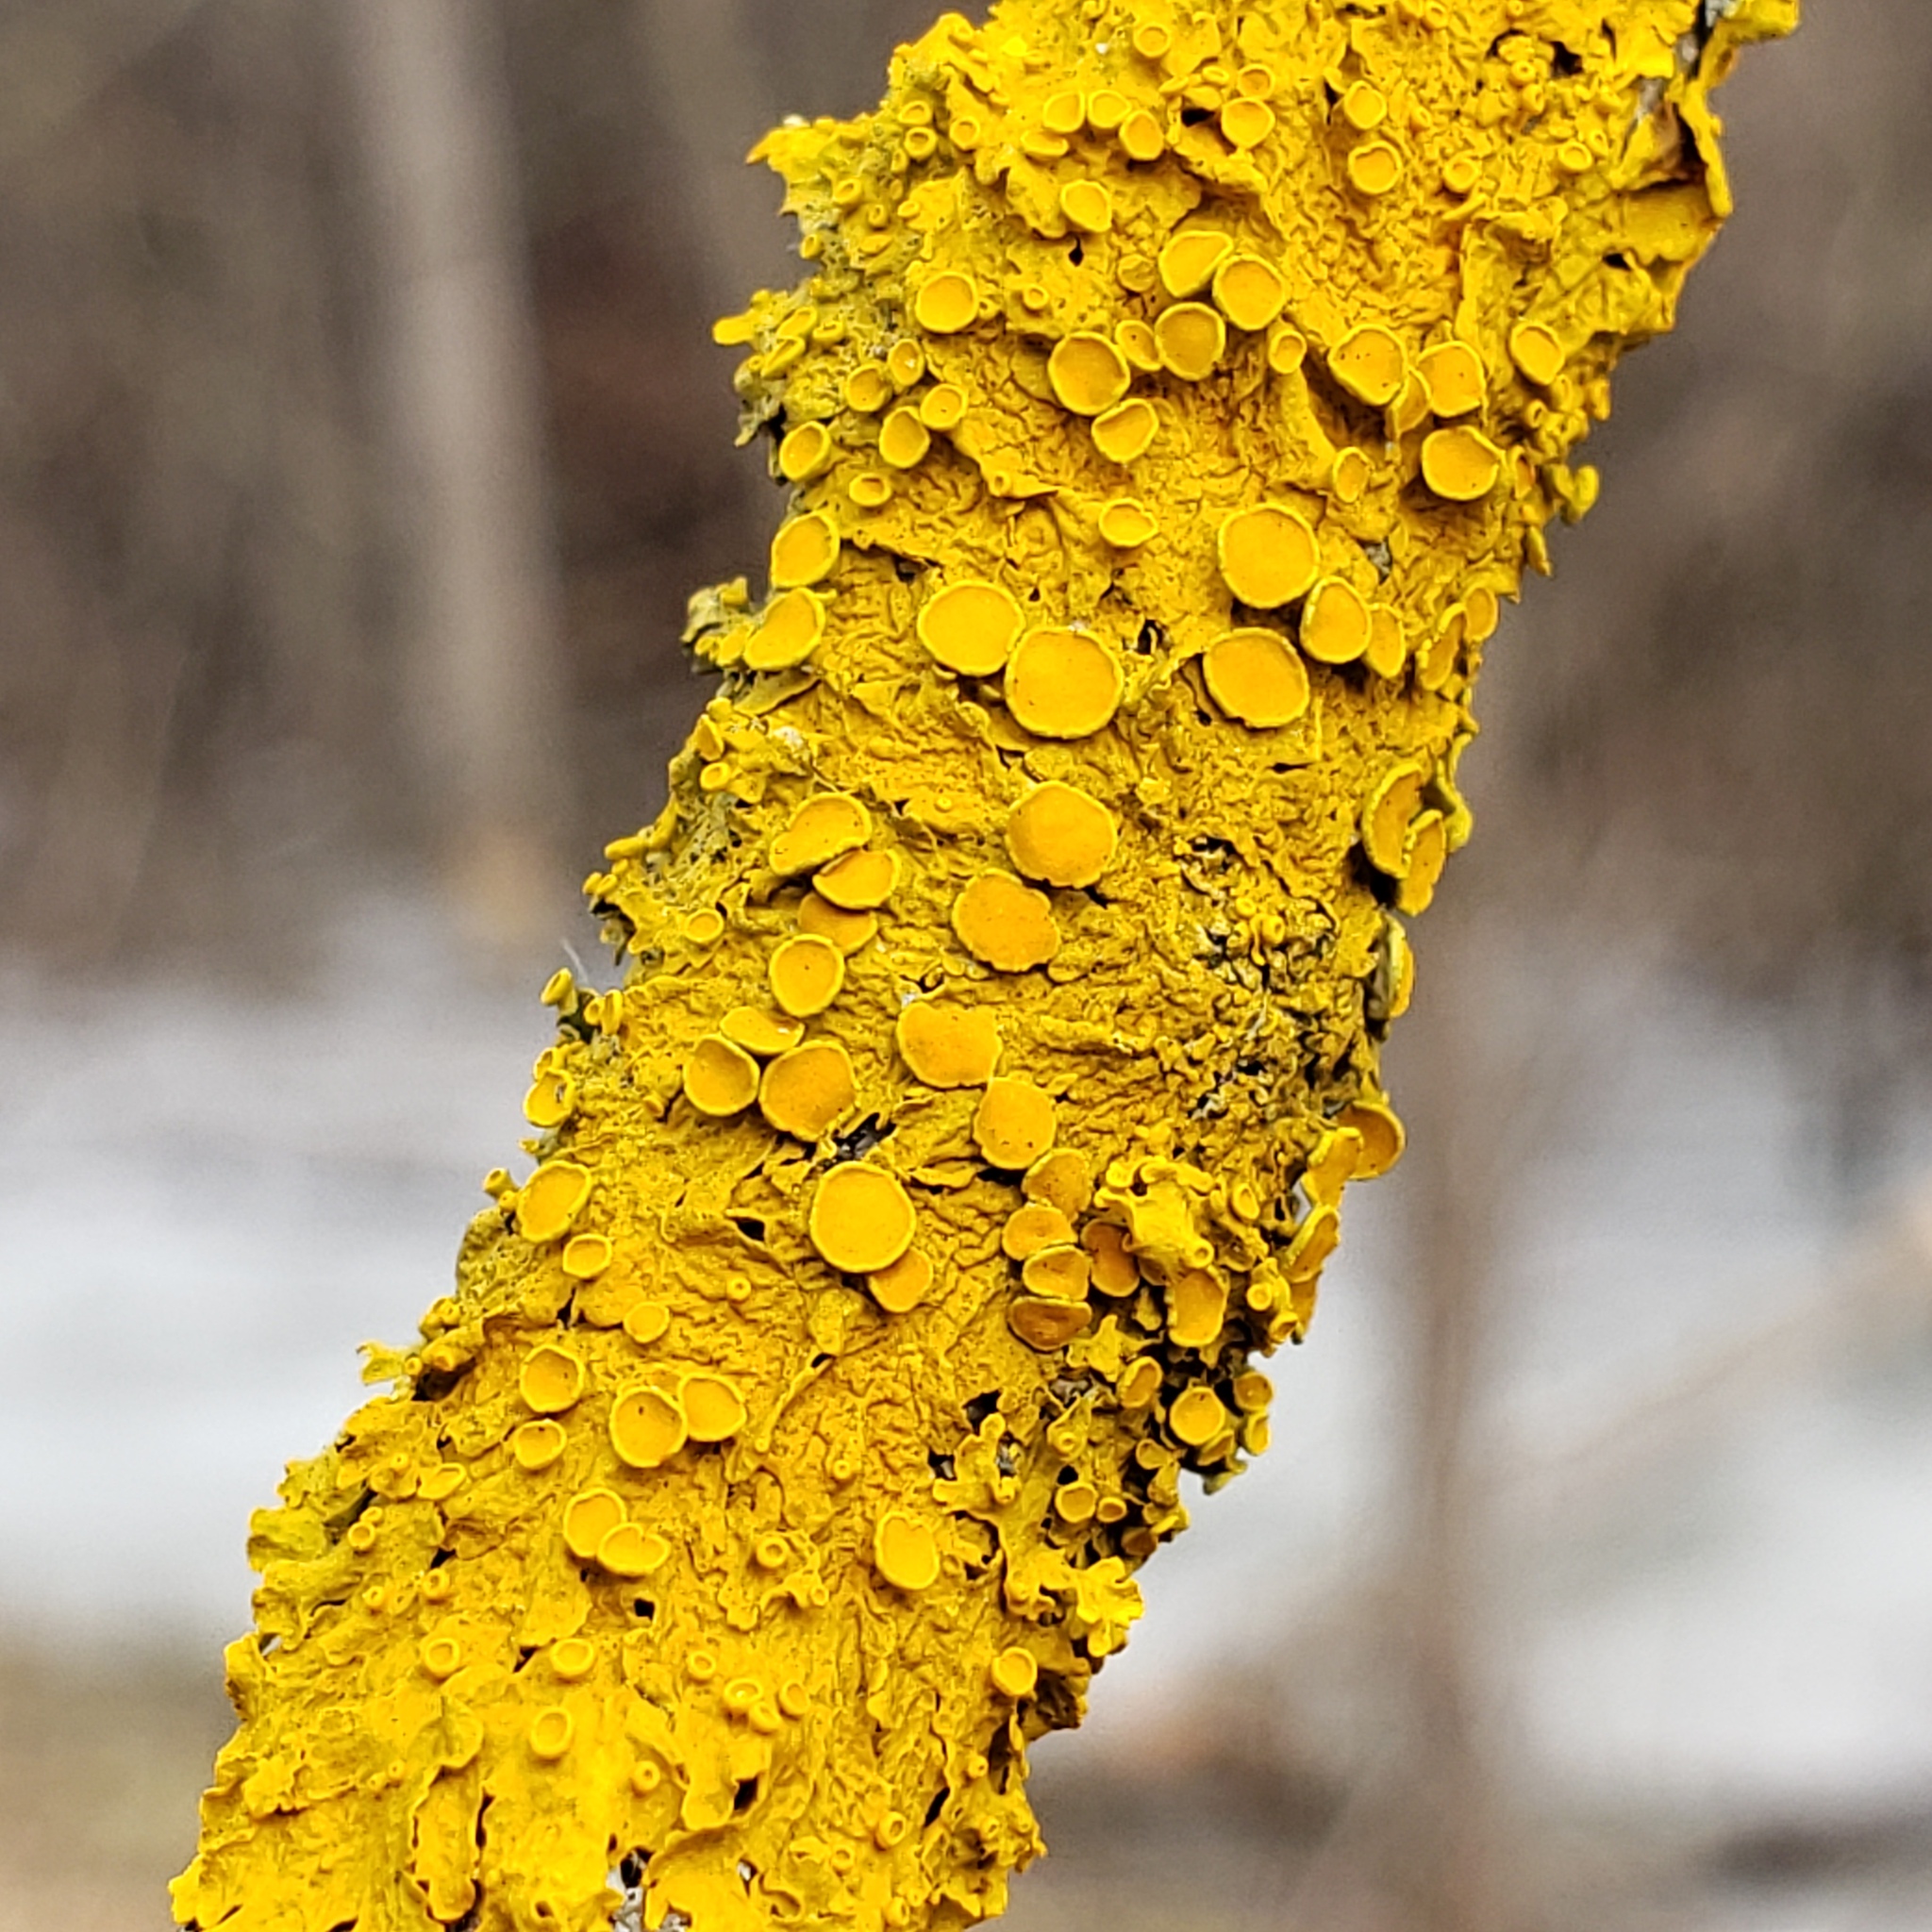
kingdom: Fungi
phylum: Ascomycota
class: Lecanoromycetes
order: Teloschistales
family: Teloschistaceae
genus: Xanthoria
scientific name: Xanthoria parietina
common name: Common orange lichen
